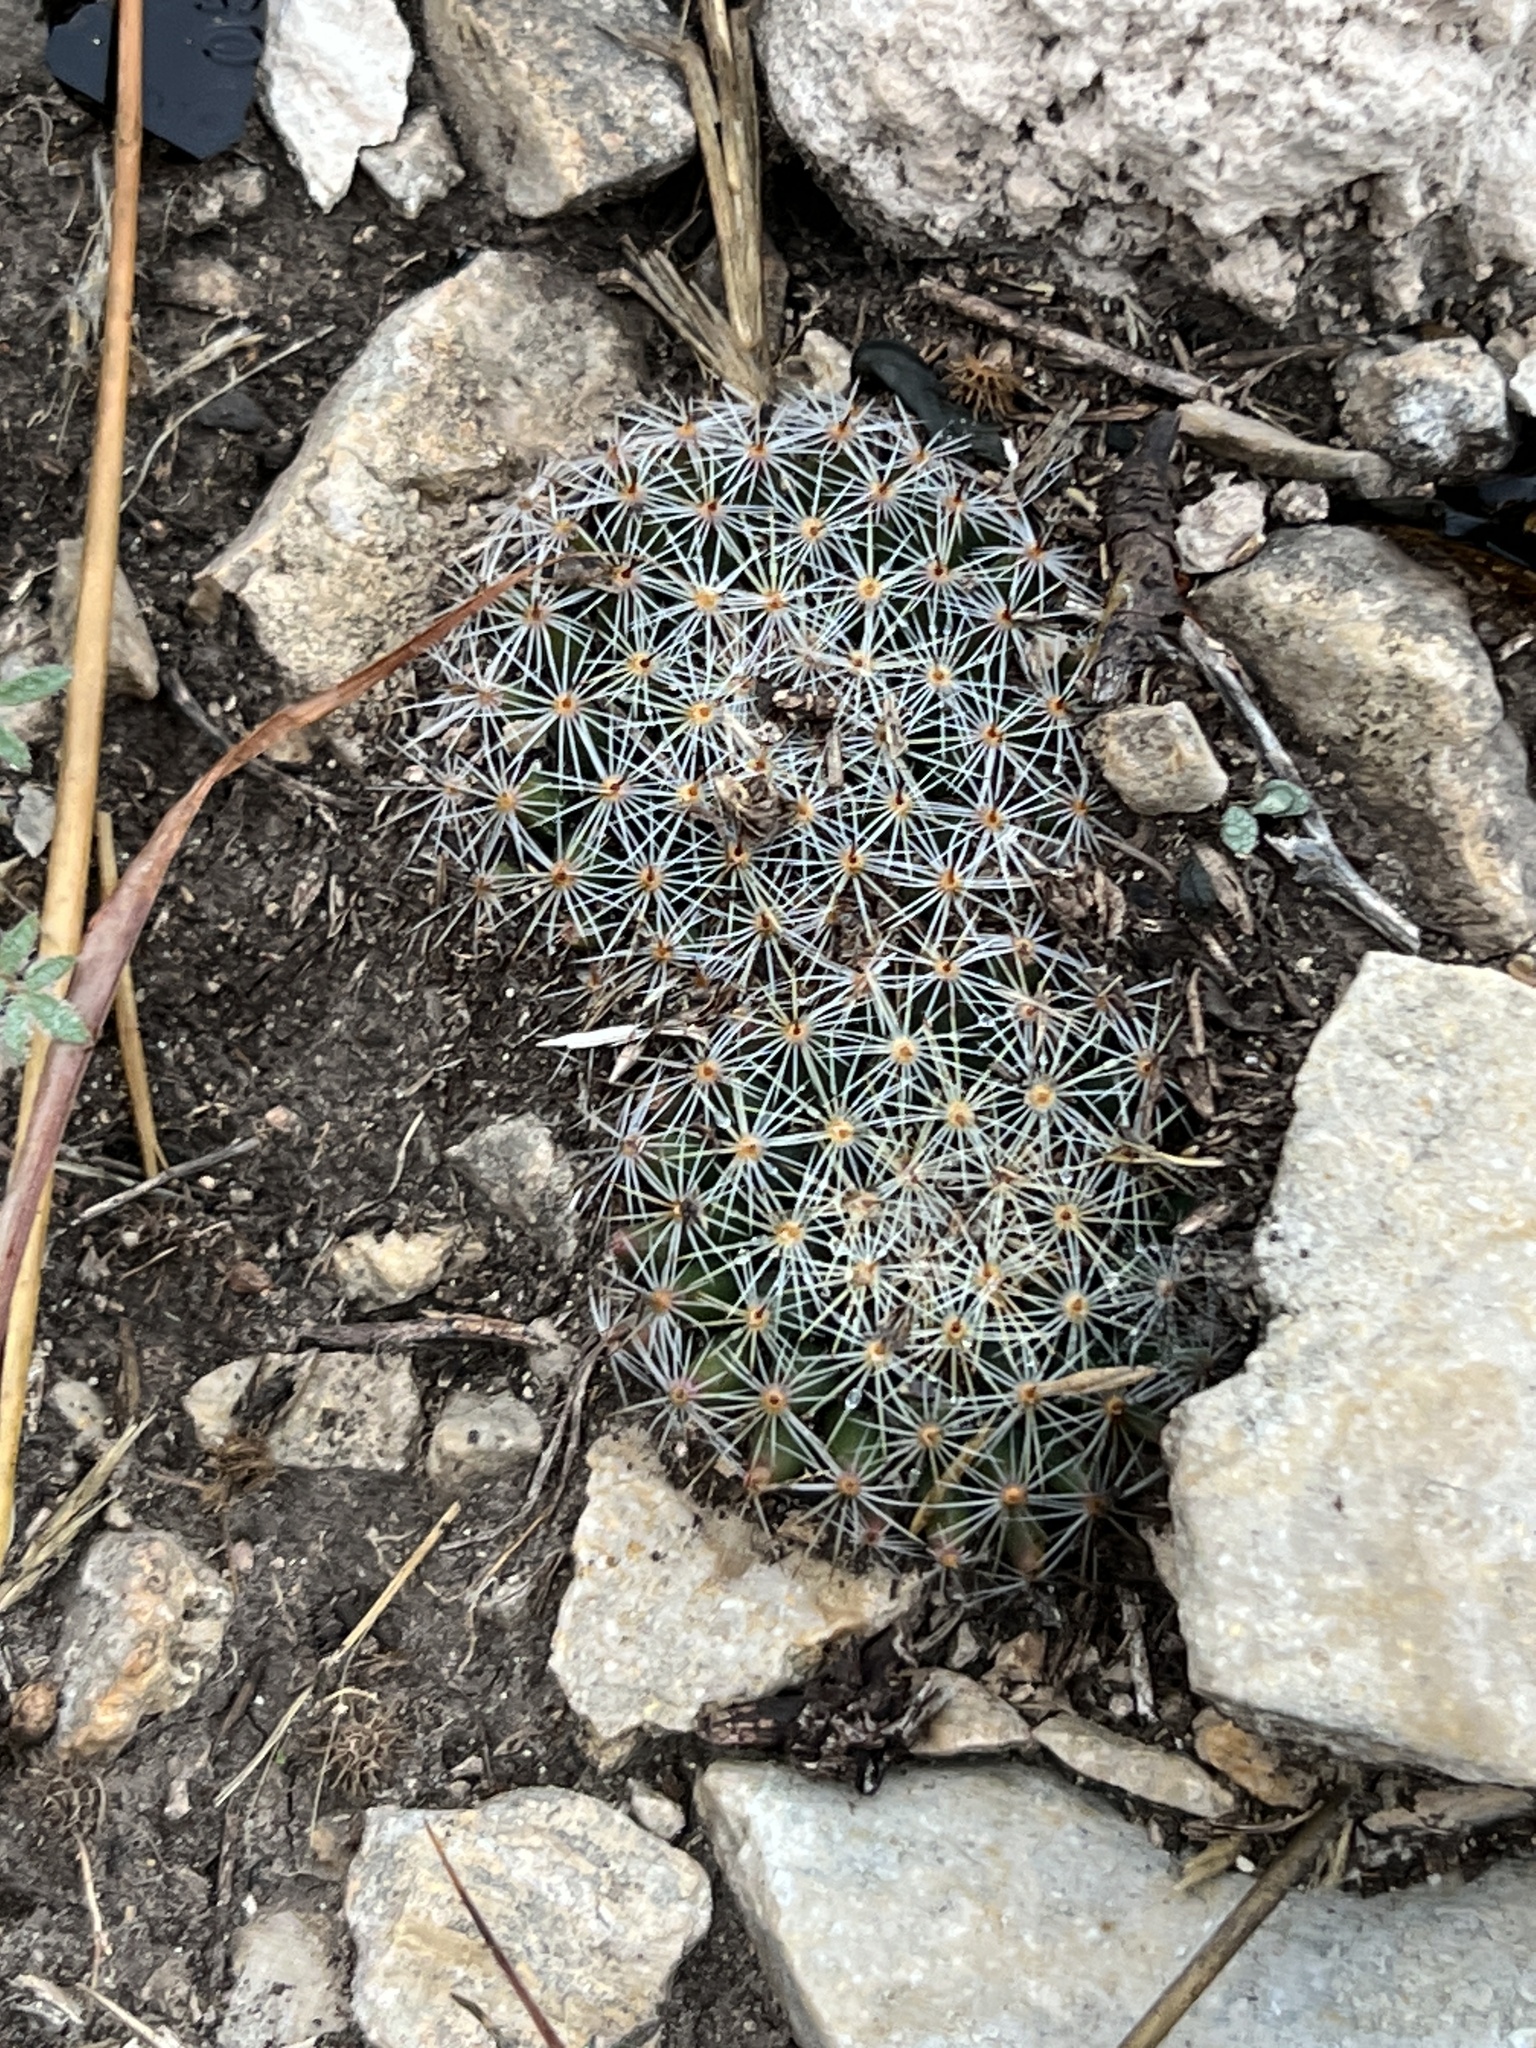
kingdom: Plantae
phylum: Tracheophyta
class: Magnoliopsida
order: Caryophyllales
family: Cactaceae
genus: Mammillaria
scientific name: Mammillaria heyderi
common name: Little nipple cactus
